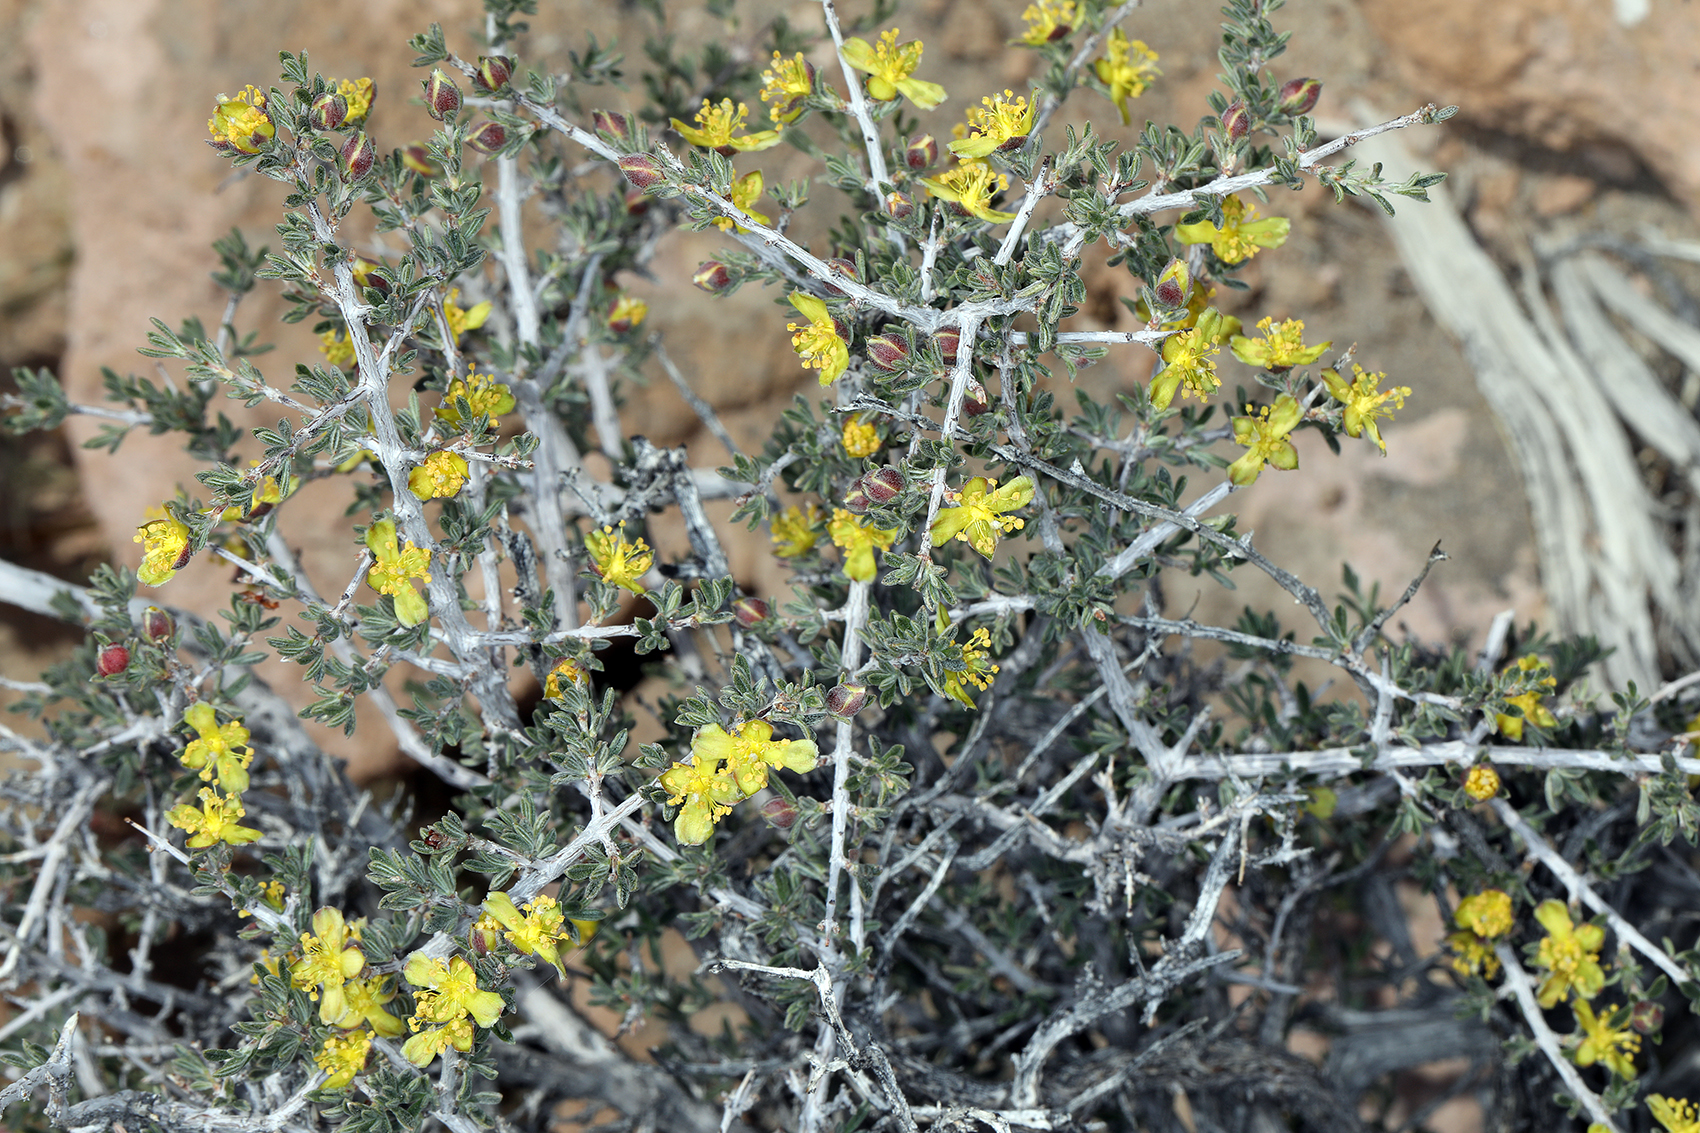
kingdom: Plantae
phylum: Tracheophyta
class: Magnoliopsida
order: Rosales
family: Rosaceae
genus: Coleogyne
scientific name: Coleogyne ramosissima
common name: Blackbrush
